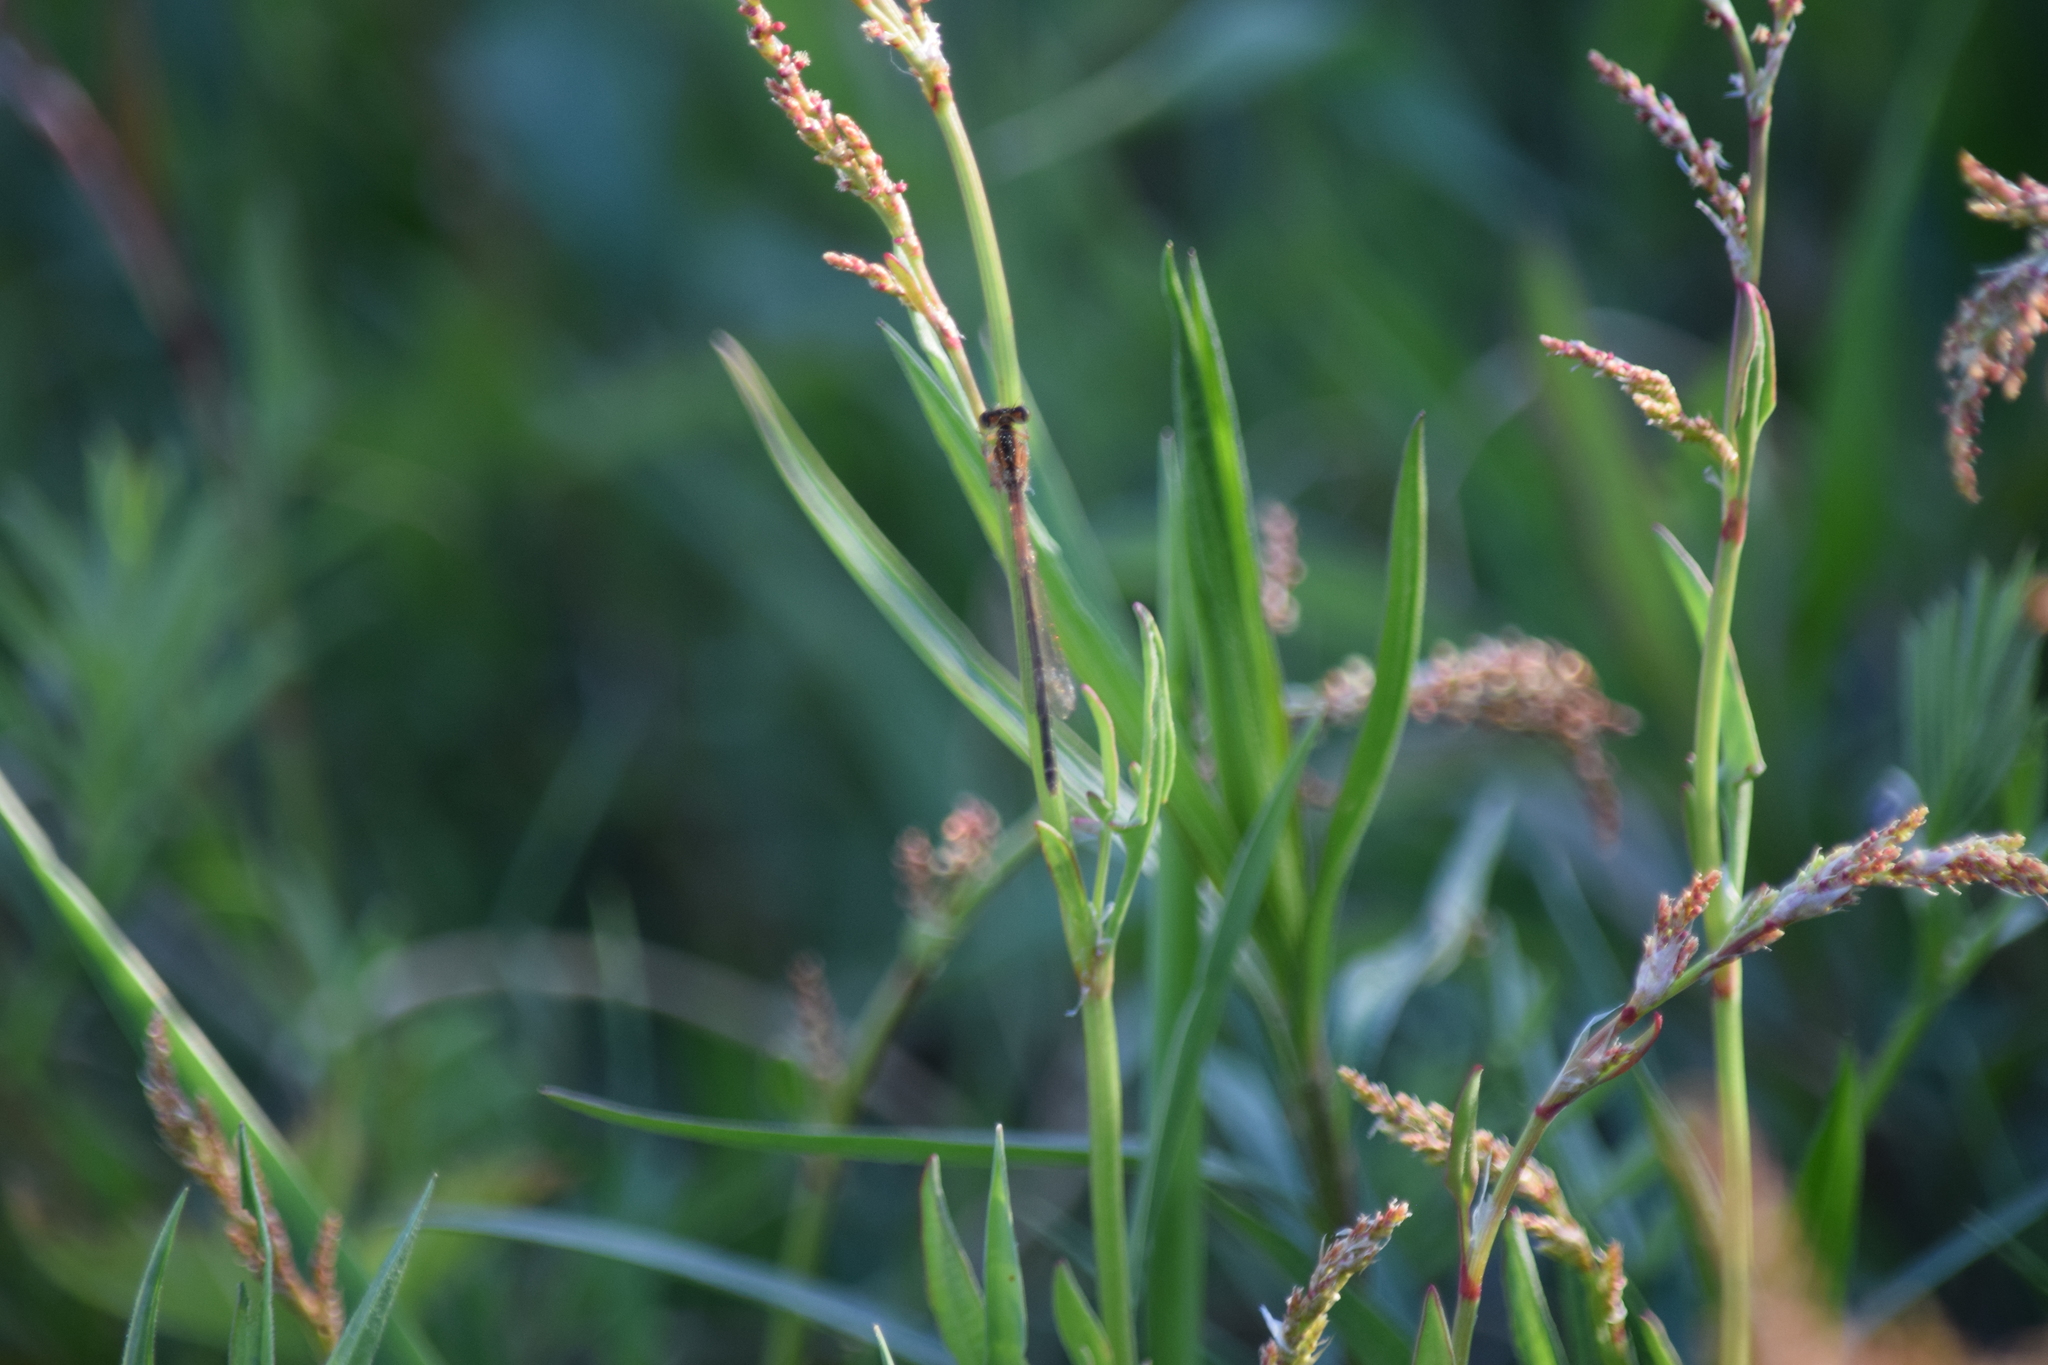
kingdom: Animalia
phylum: Arthropoda
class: Insecta
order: Odonata
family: Coenagrionidae
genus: Ischnura
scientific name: Ischnura hastata
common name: Citrine forktail
